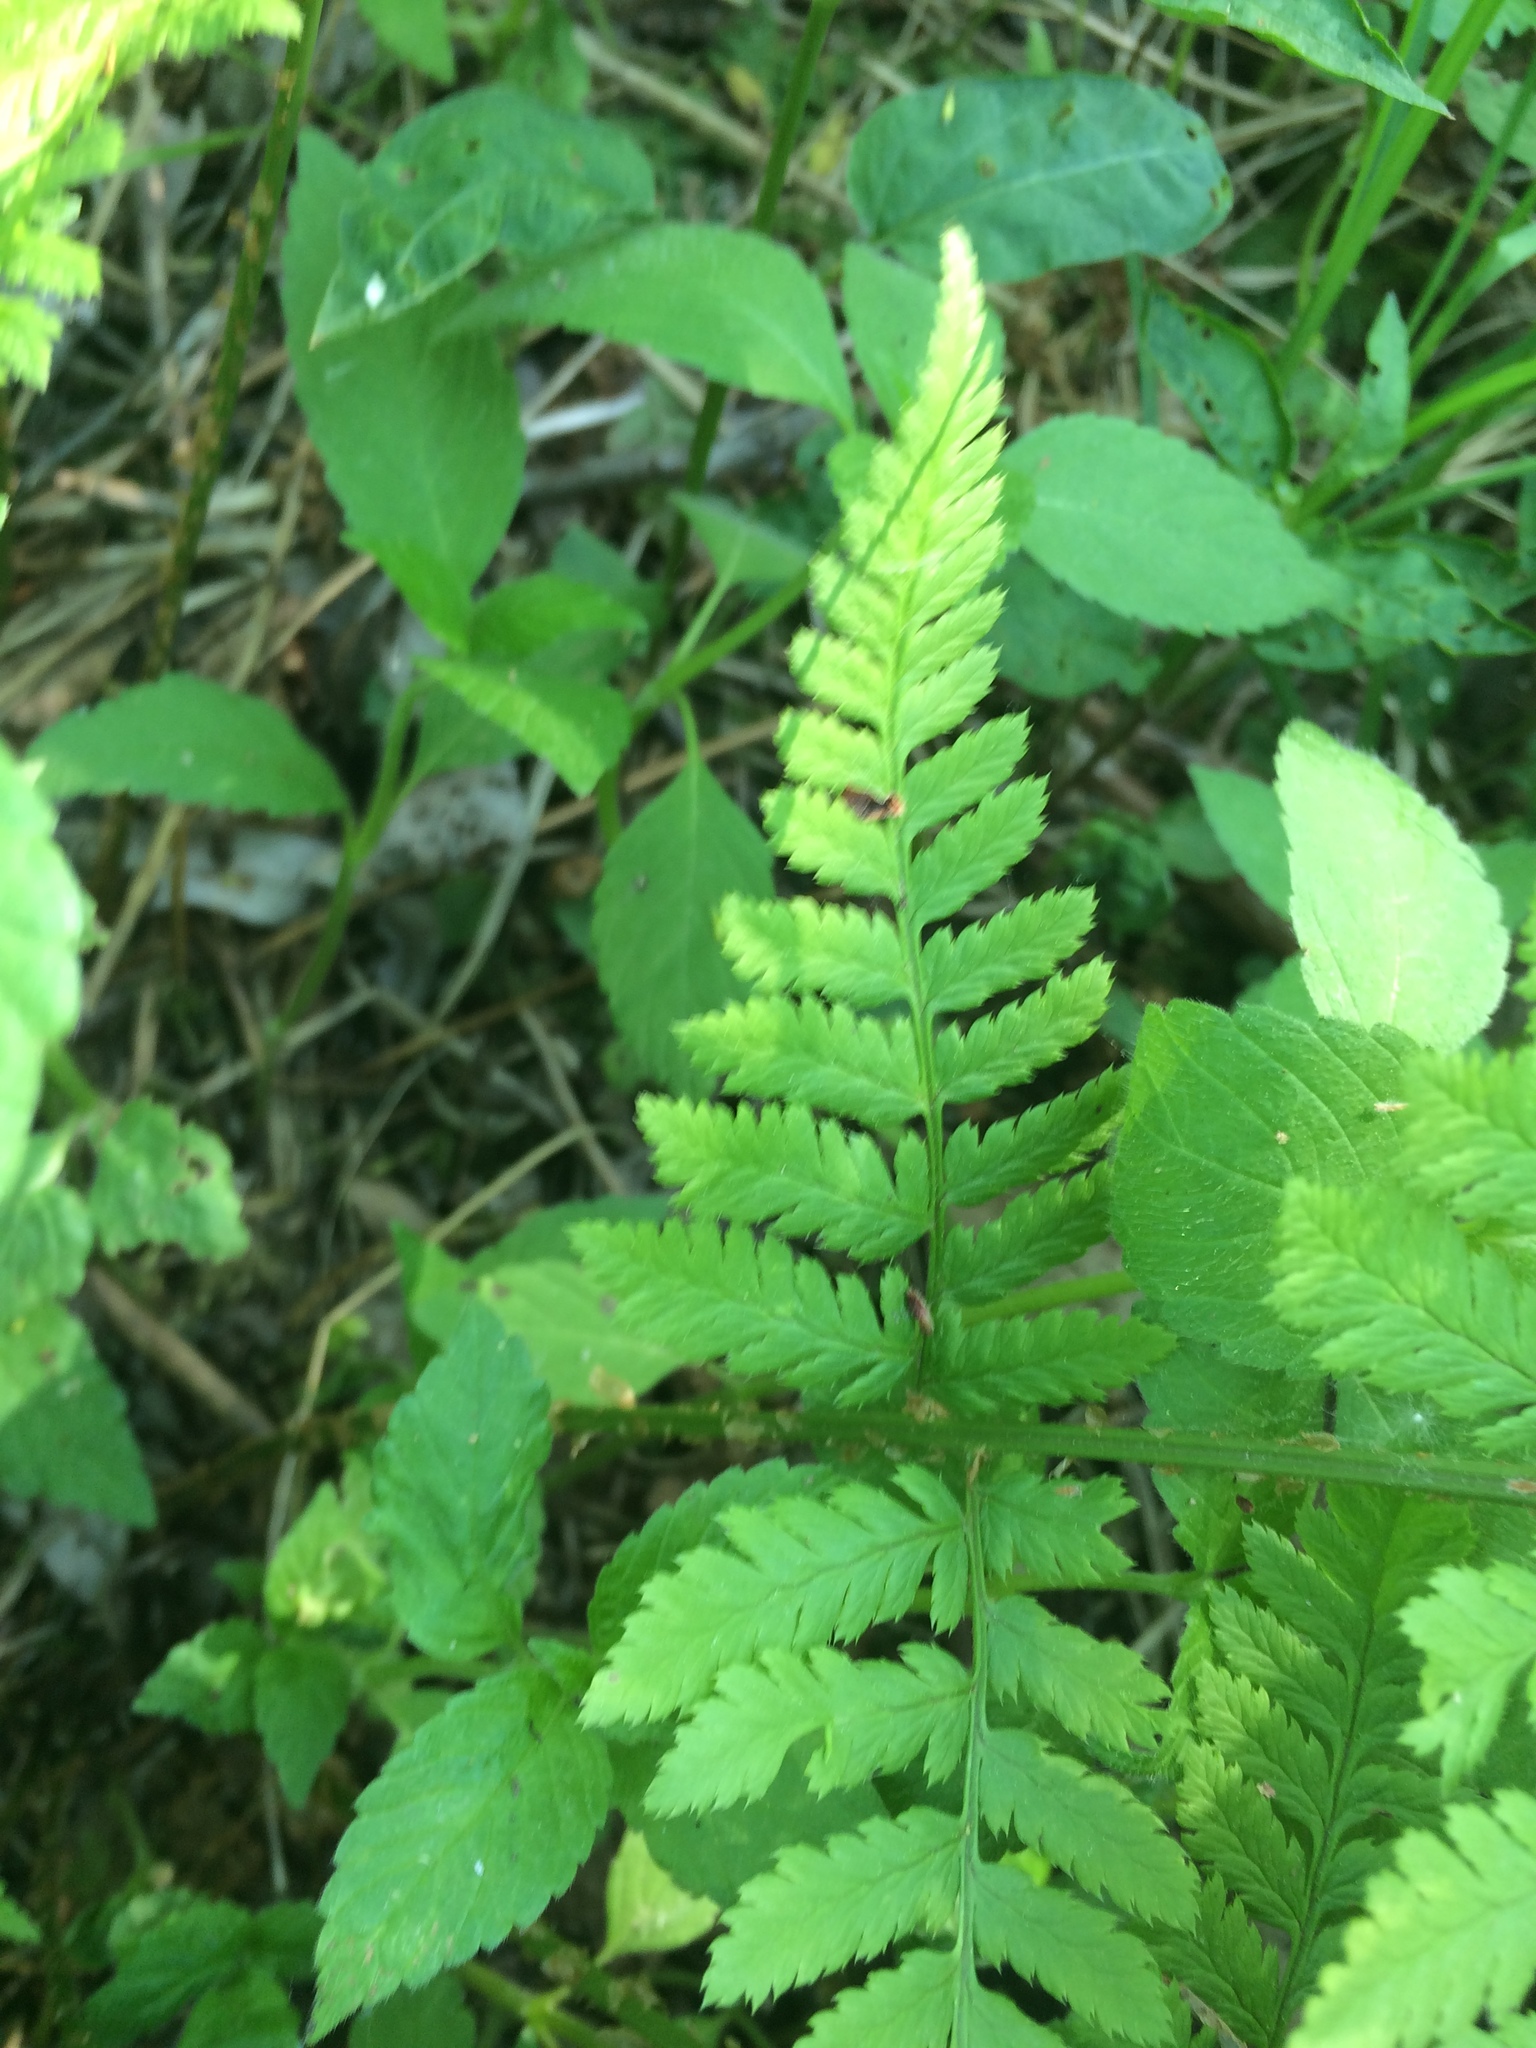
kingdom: Plantae
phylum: Tracheophyta
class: Polypodiopsida
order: Polypodiales
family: Dryopteridaceae
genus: Dryopteris
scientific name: Dryopteris carthusiana
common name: Narrow buckler-fern
